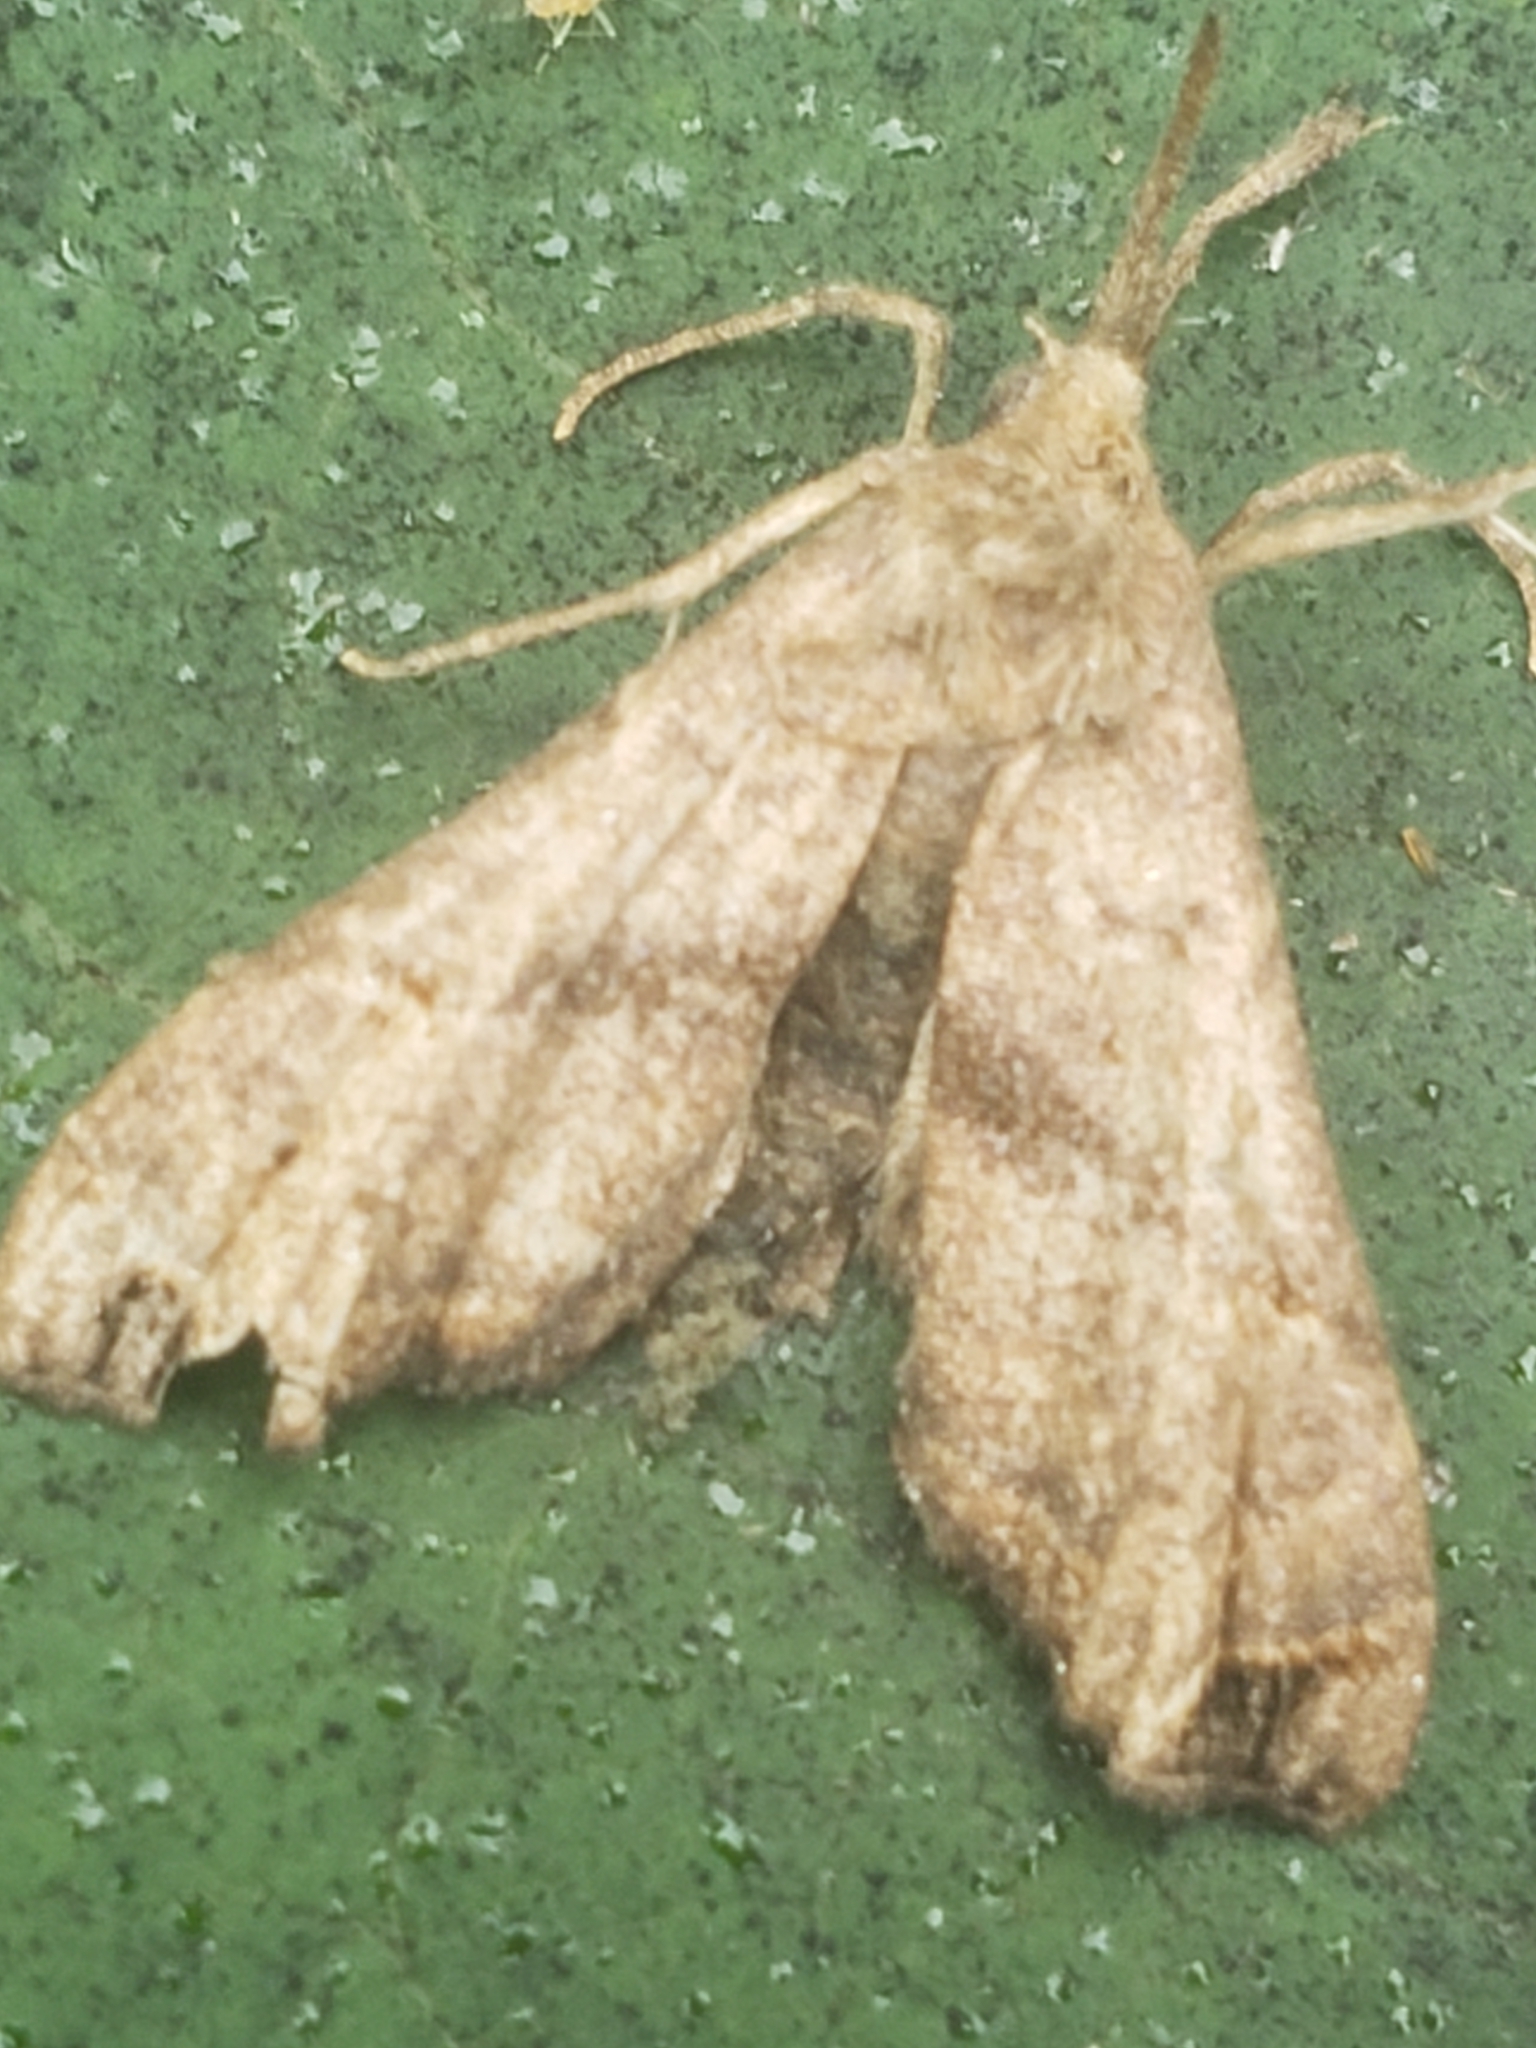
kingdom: Animalia
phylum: Arthropoda
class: Insecta
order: Lepidoptera
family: Erebidae
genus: Palthis
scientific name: Palthis asopialis
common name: Faint-spotted palthis moth
